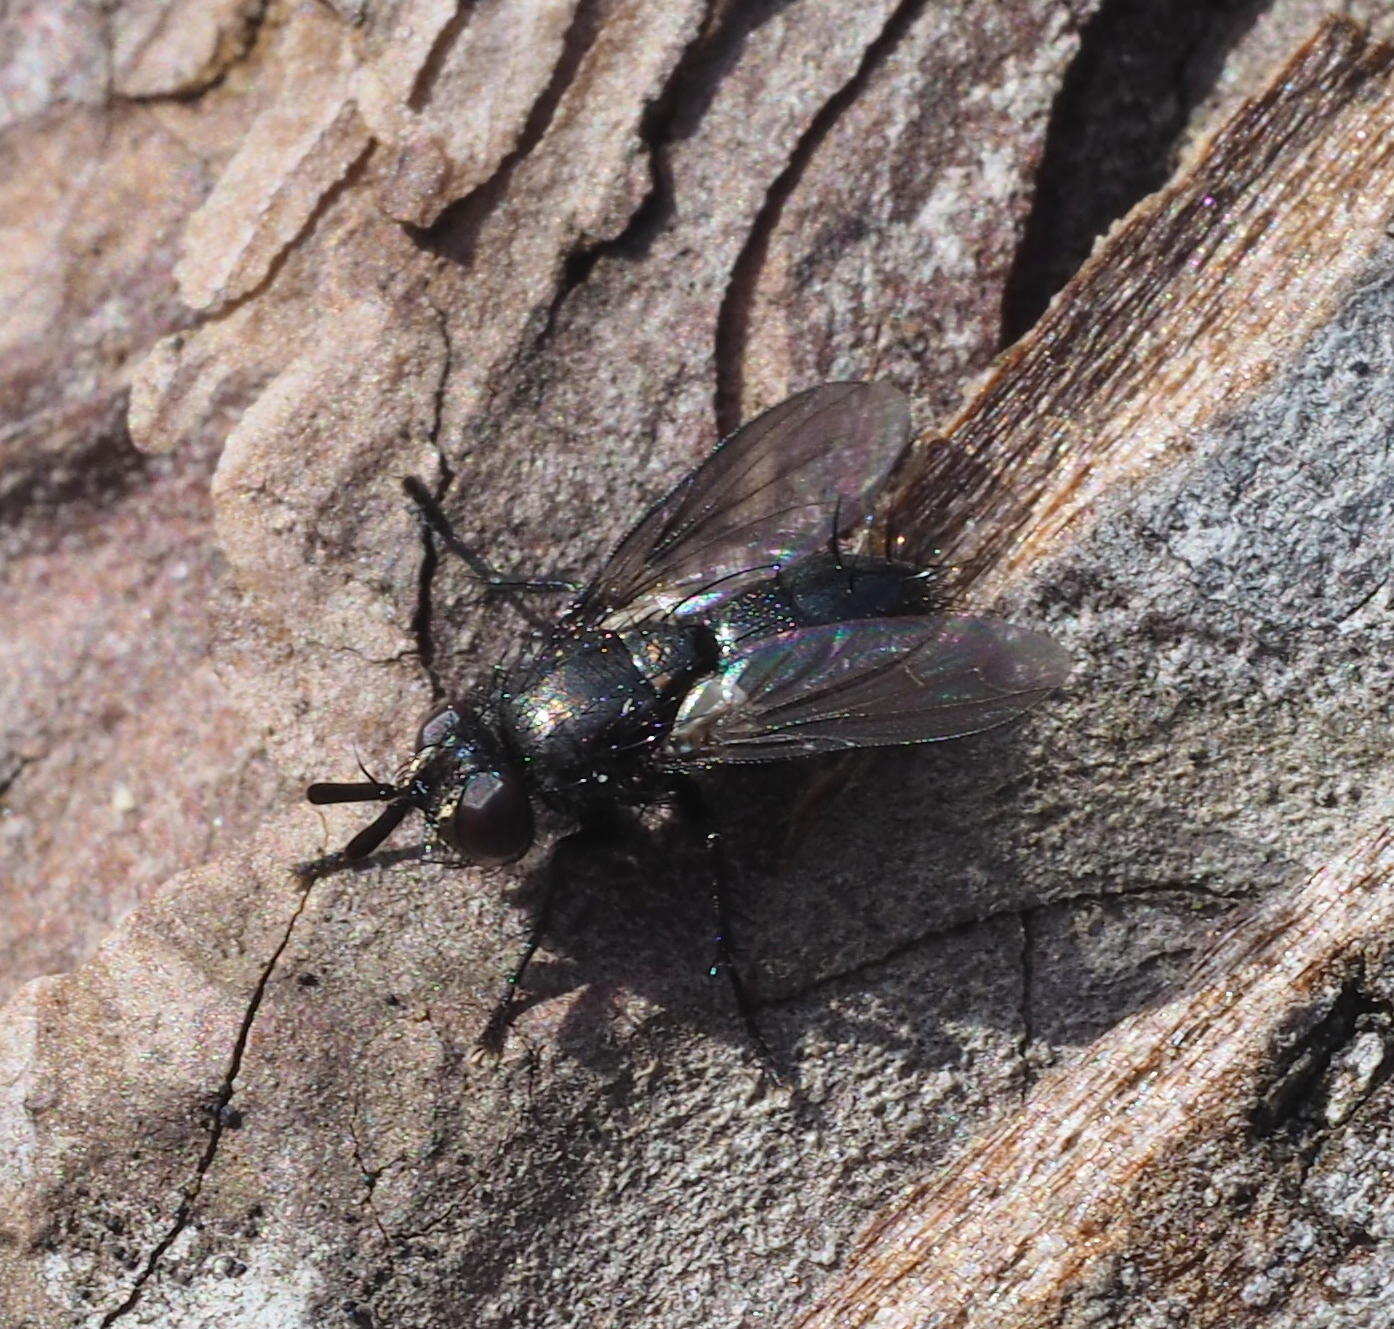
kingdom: Animalia
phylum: Arthropoda
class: Insecta
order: Diptera
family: Tachinidae
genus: Periscepsia
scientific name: Periscepsia carbonaria
